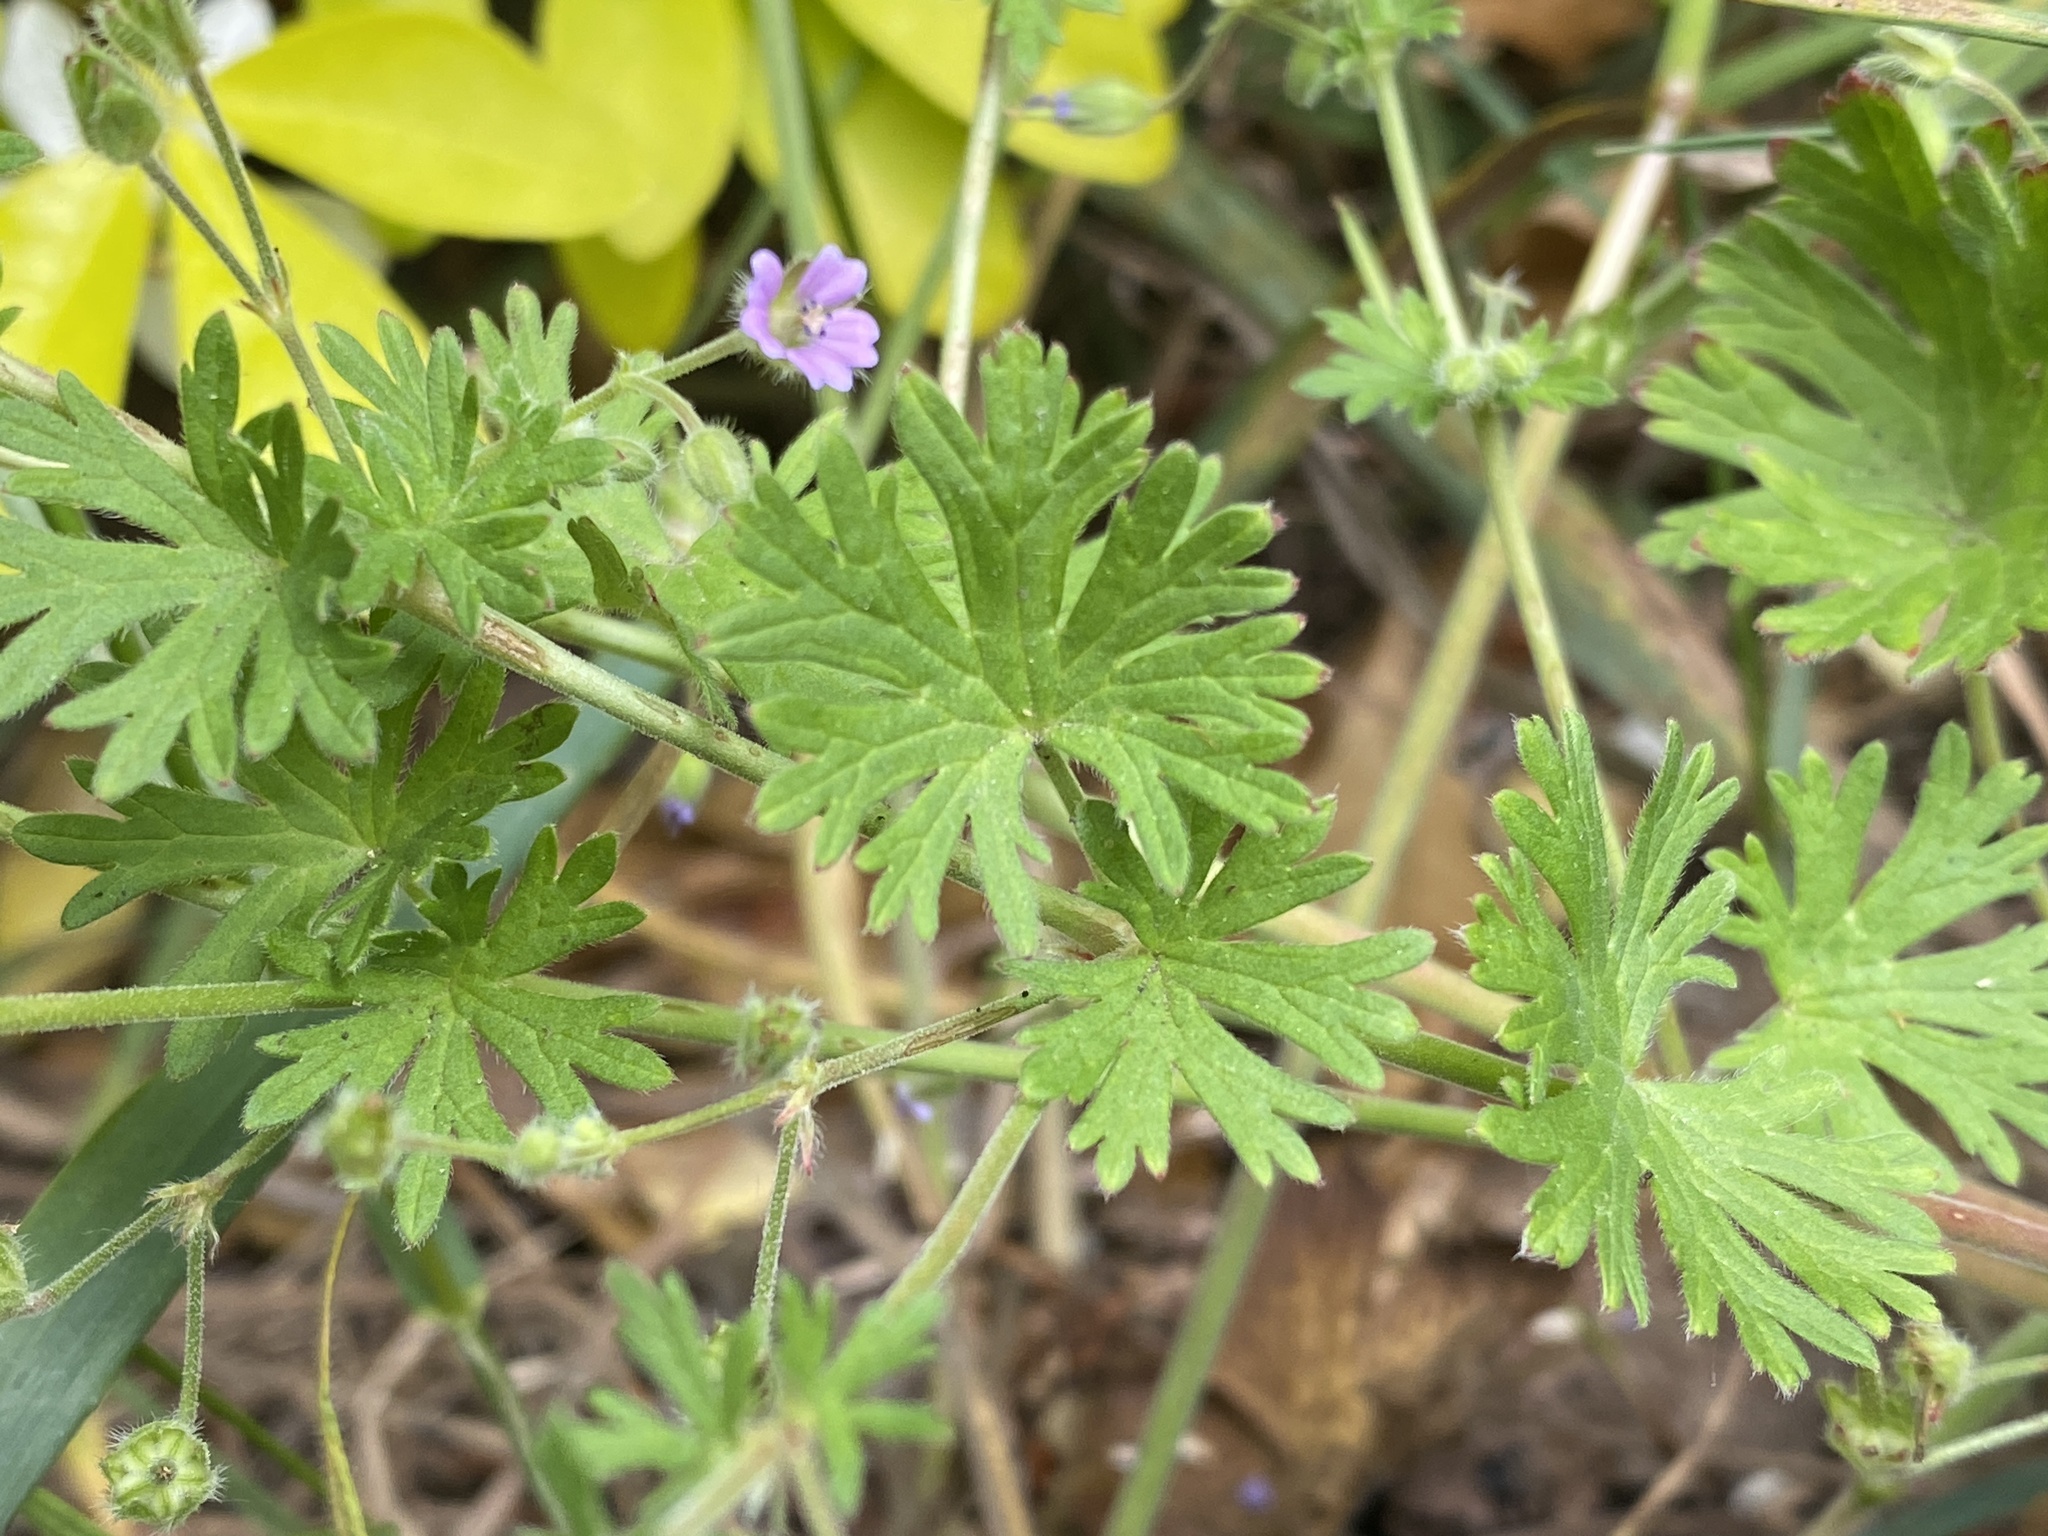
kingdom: Plantae
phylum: Tracheophyta
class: Magnoliopsida
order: Geraniales
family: Geraniaceae
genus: Geranium
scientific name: Geranium pusillum
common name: Small geranium
